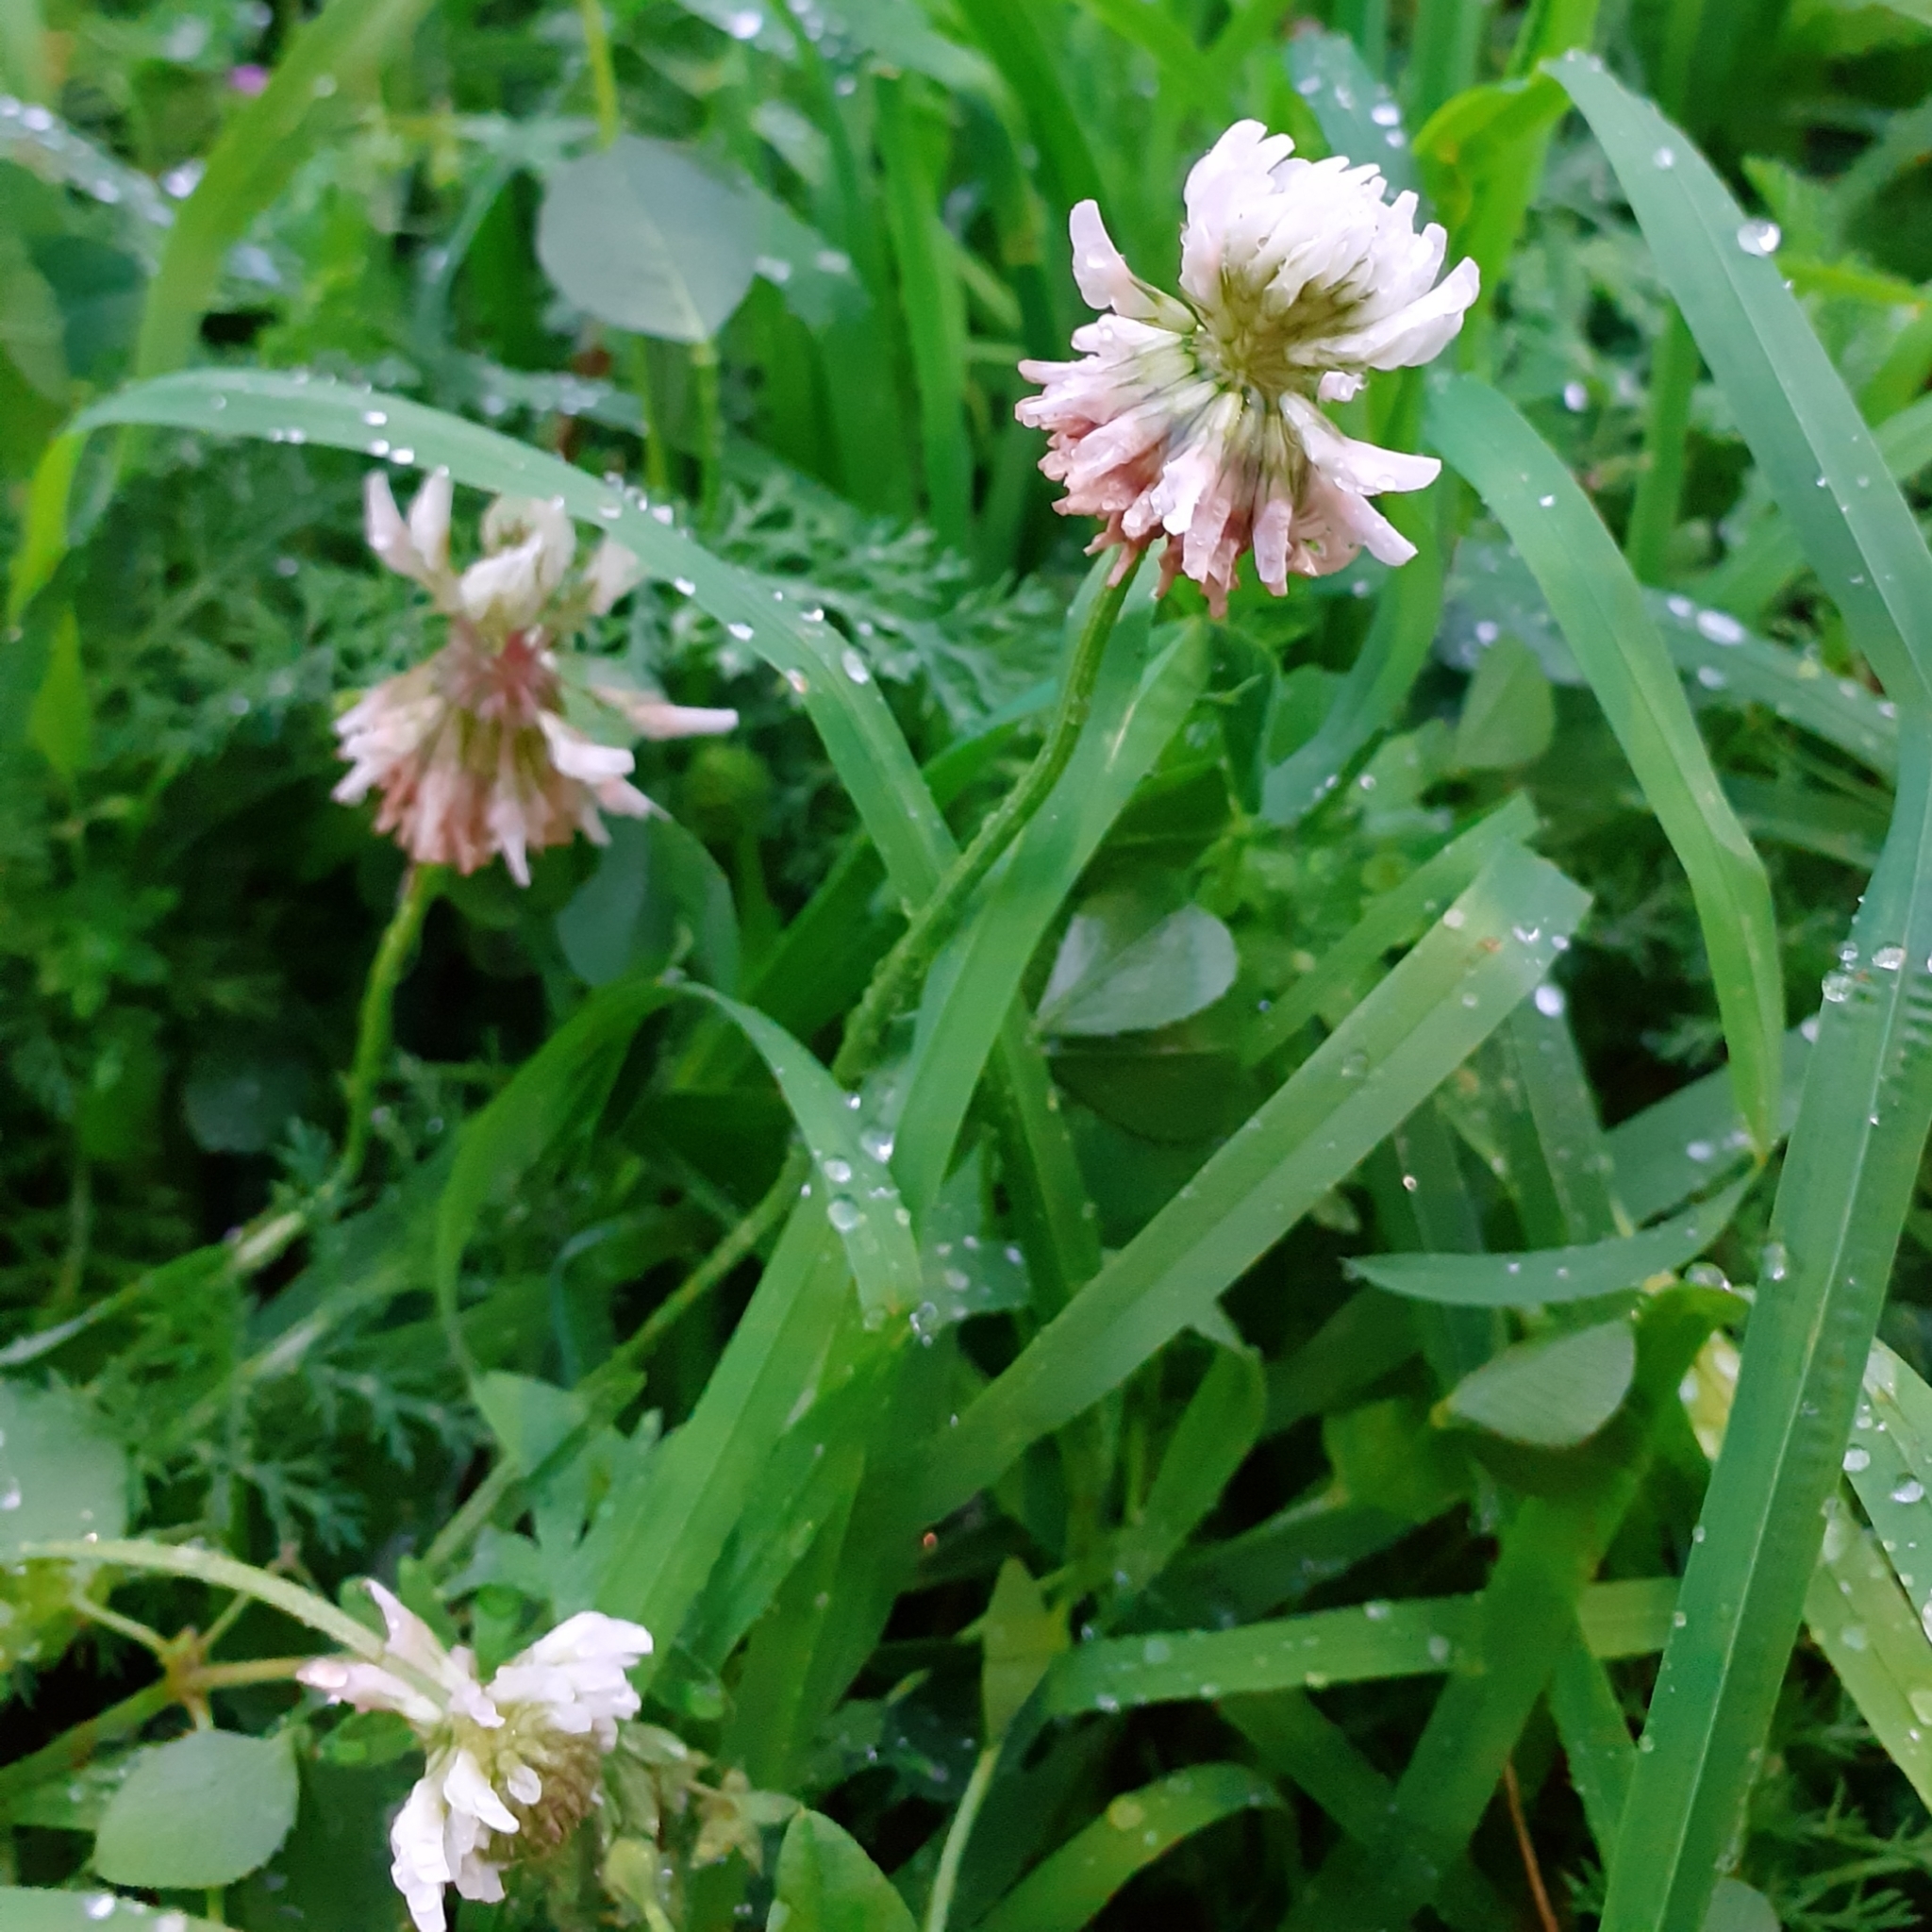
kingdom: Plantae
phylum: Tracheophyta
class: Magnoliopsida
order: Fabales
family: Fabaceae
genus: Trifolium
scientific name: Trifolium repens
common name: White clover
